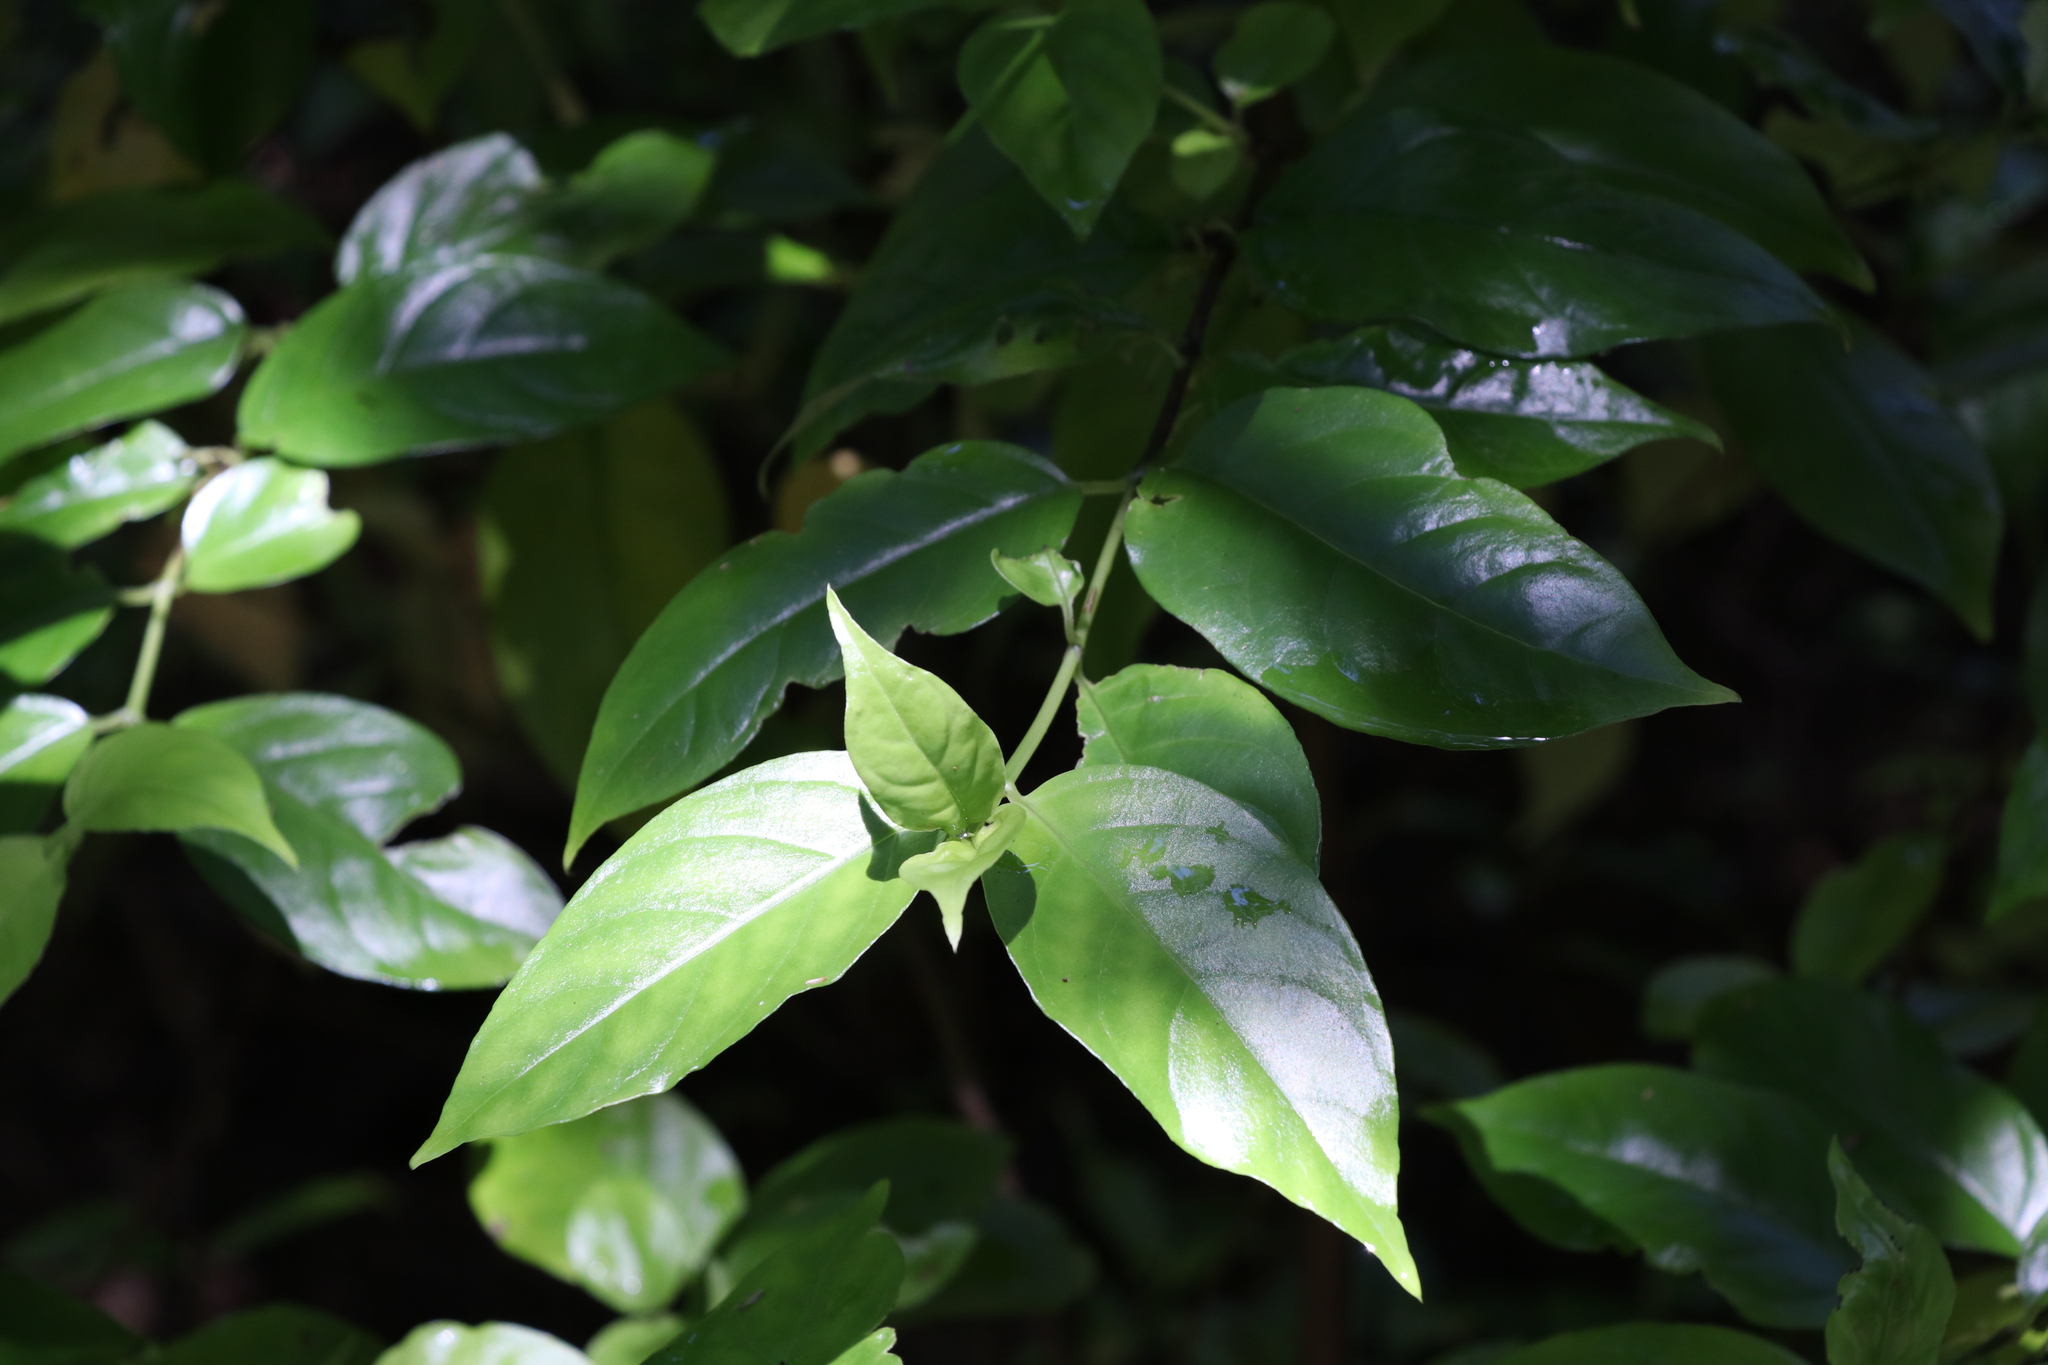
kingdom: Plantae
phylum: Tracheophyta
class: Magnoliopsida
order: Gentianales
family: Loganiaceae
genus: Geniostoma
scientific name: Geniostoma ligustrifolium
